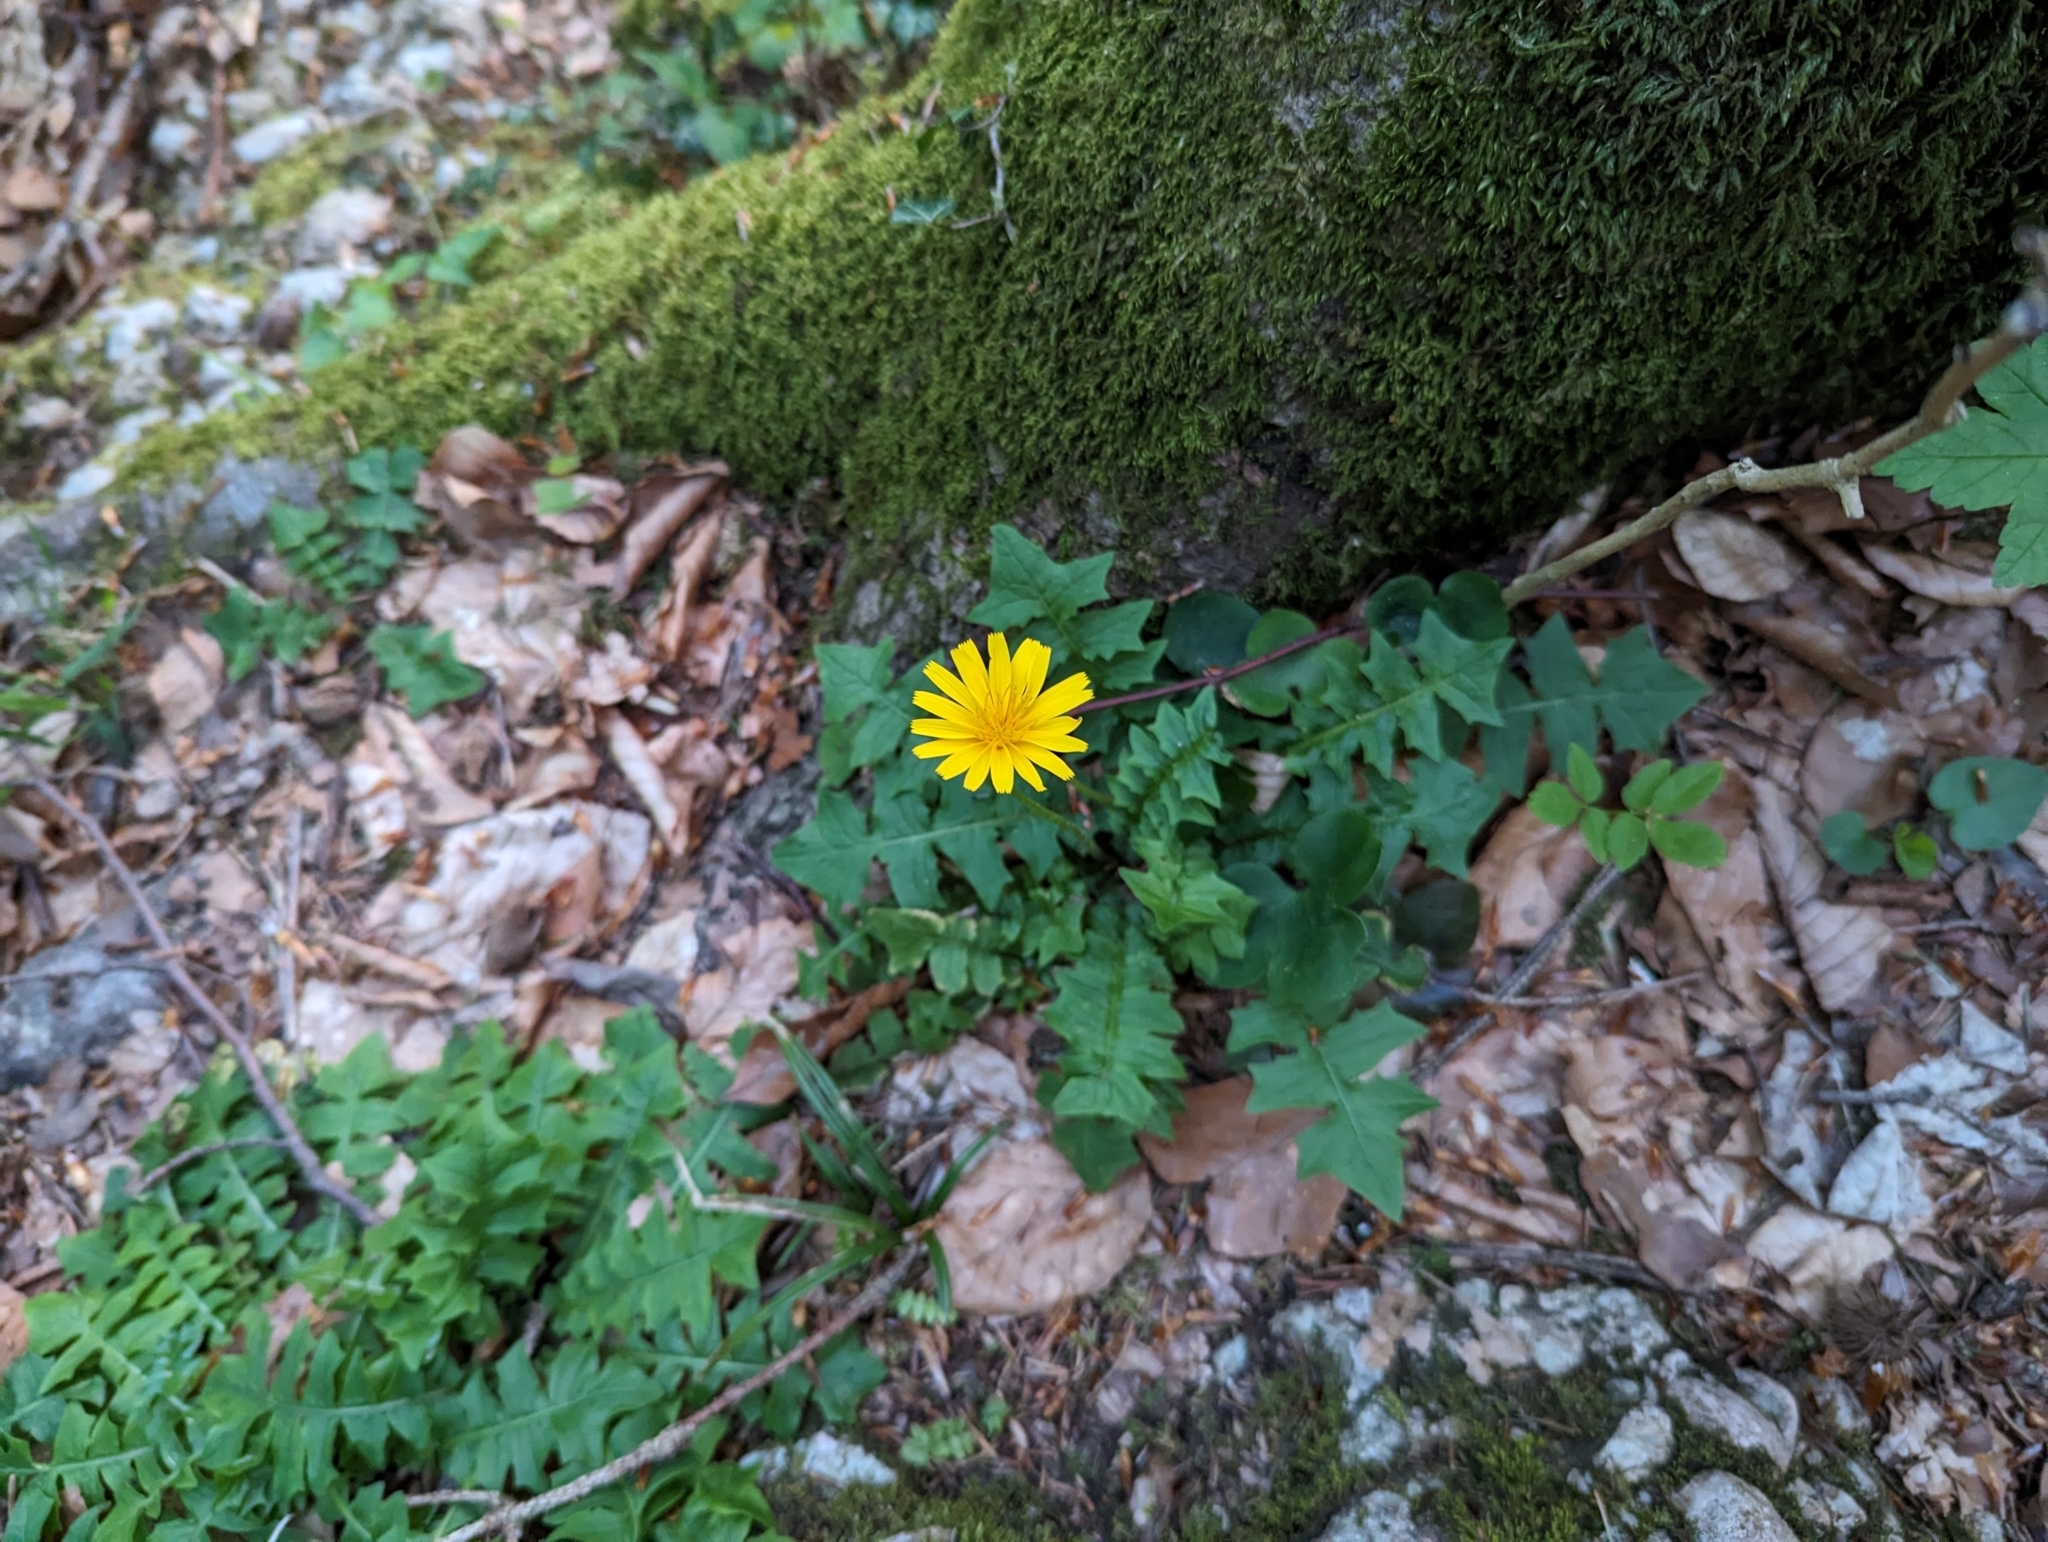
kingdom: Plantae
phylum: Tracheophyta
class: Magnoliopsida
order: Asterales
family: Asteraceae
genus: Aposeris
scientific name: Aposeris foetida
